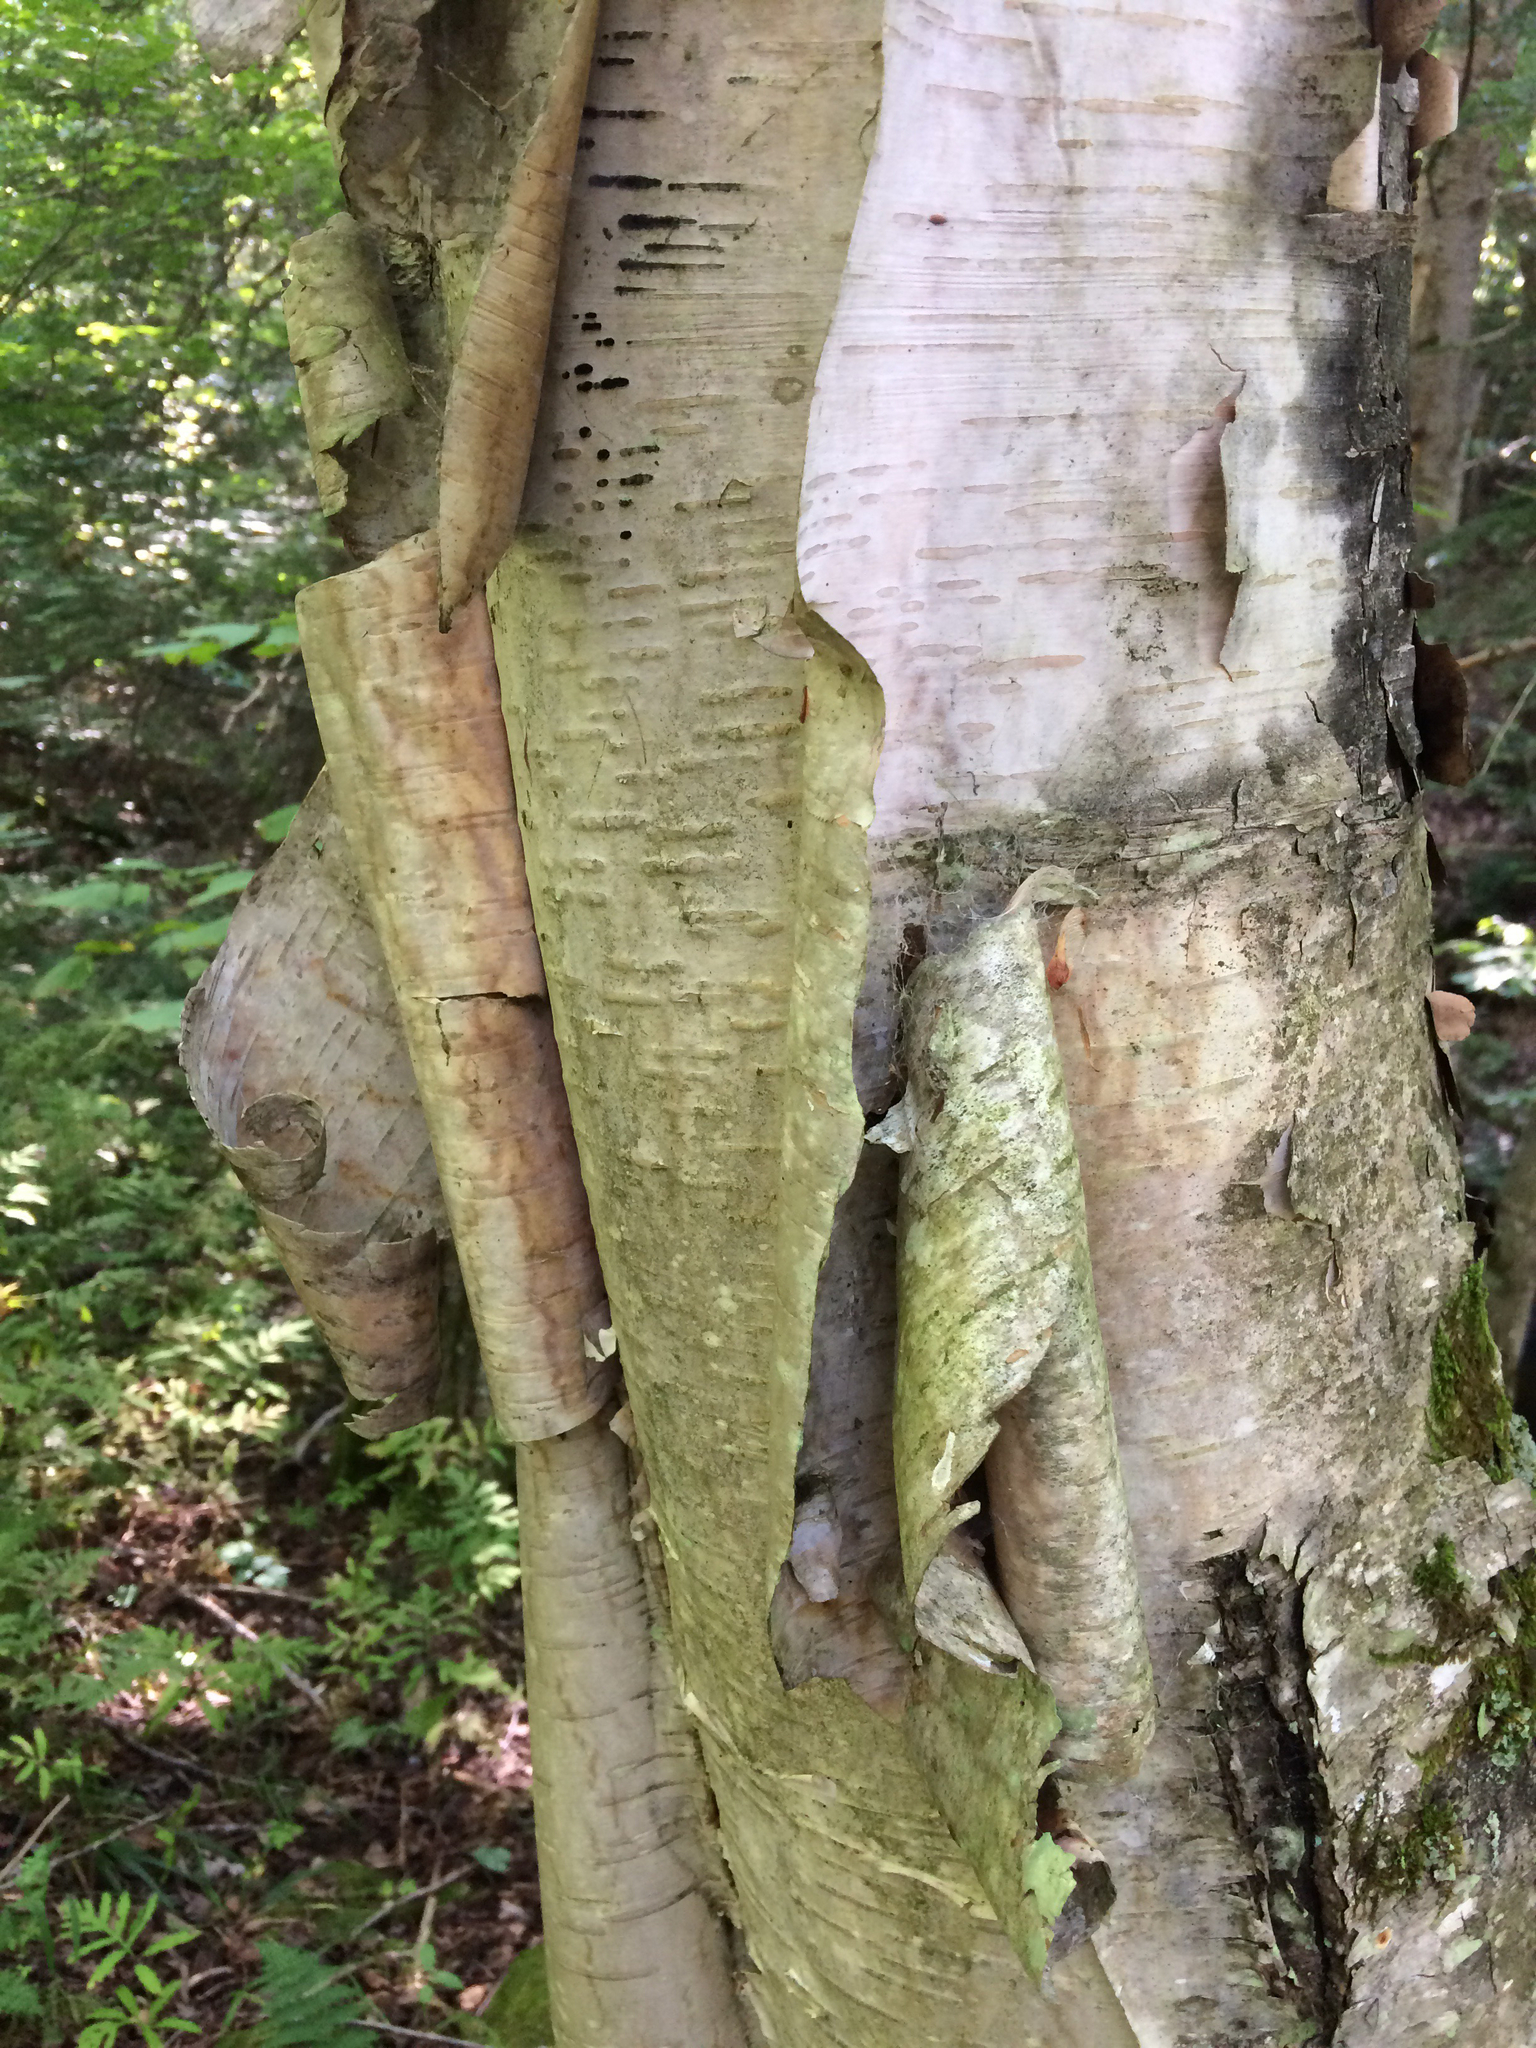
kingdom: Plantae
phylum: Tracheophyta
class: Magnoliopsida
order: Fagales
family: Betulaceae
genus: Betula
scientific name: Betula papyrifera
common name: Paper birch
